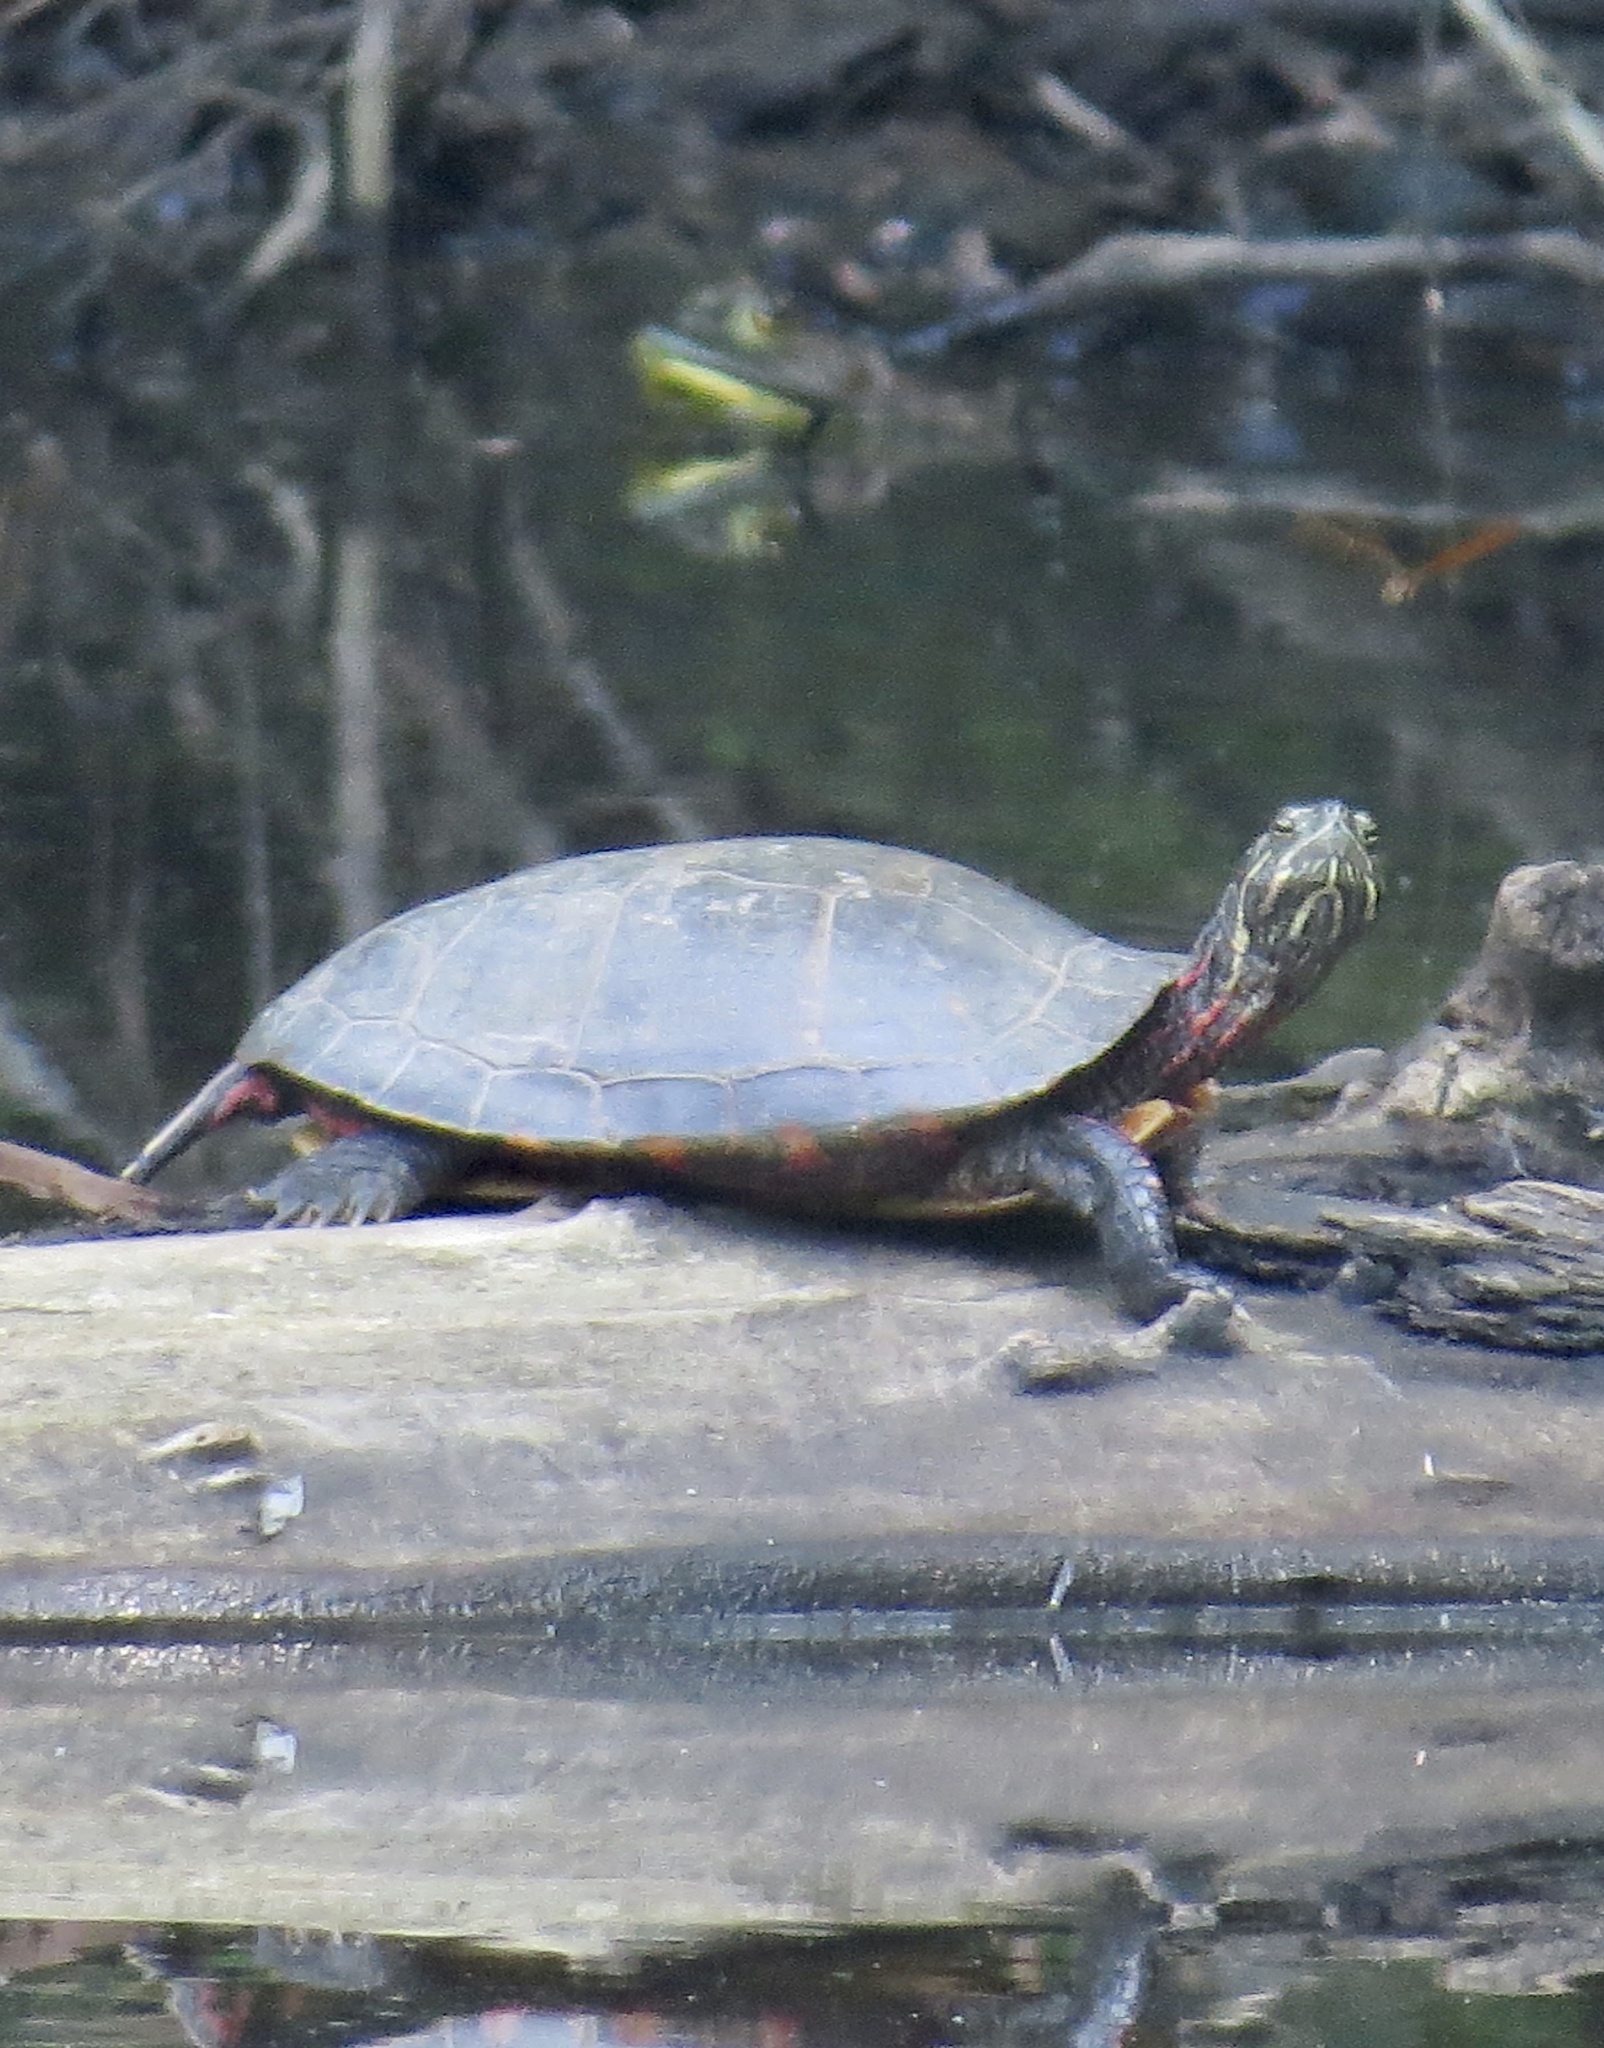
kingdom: Animalia
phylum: Chordata
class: Testudines
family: Emydidae
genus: Chrysemys
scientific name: Chrysemys picta
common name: Painted turtle
